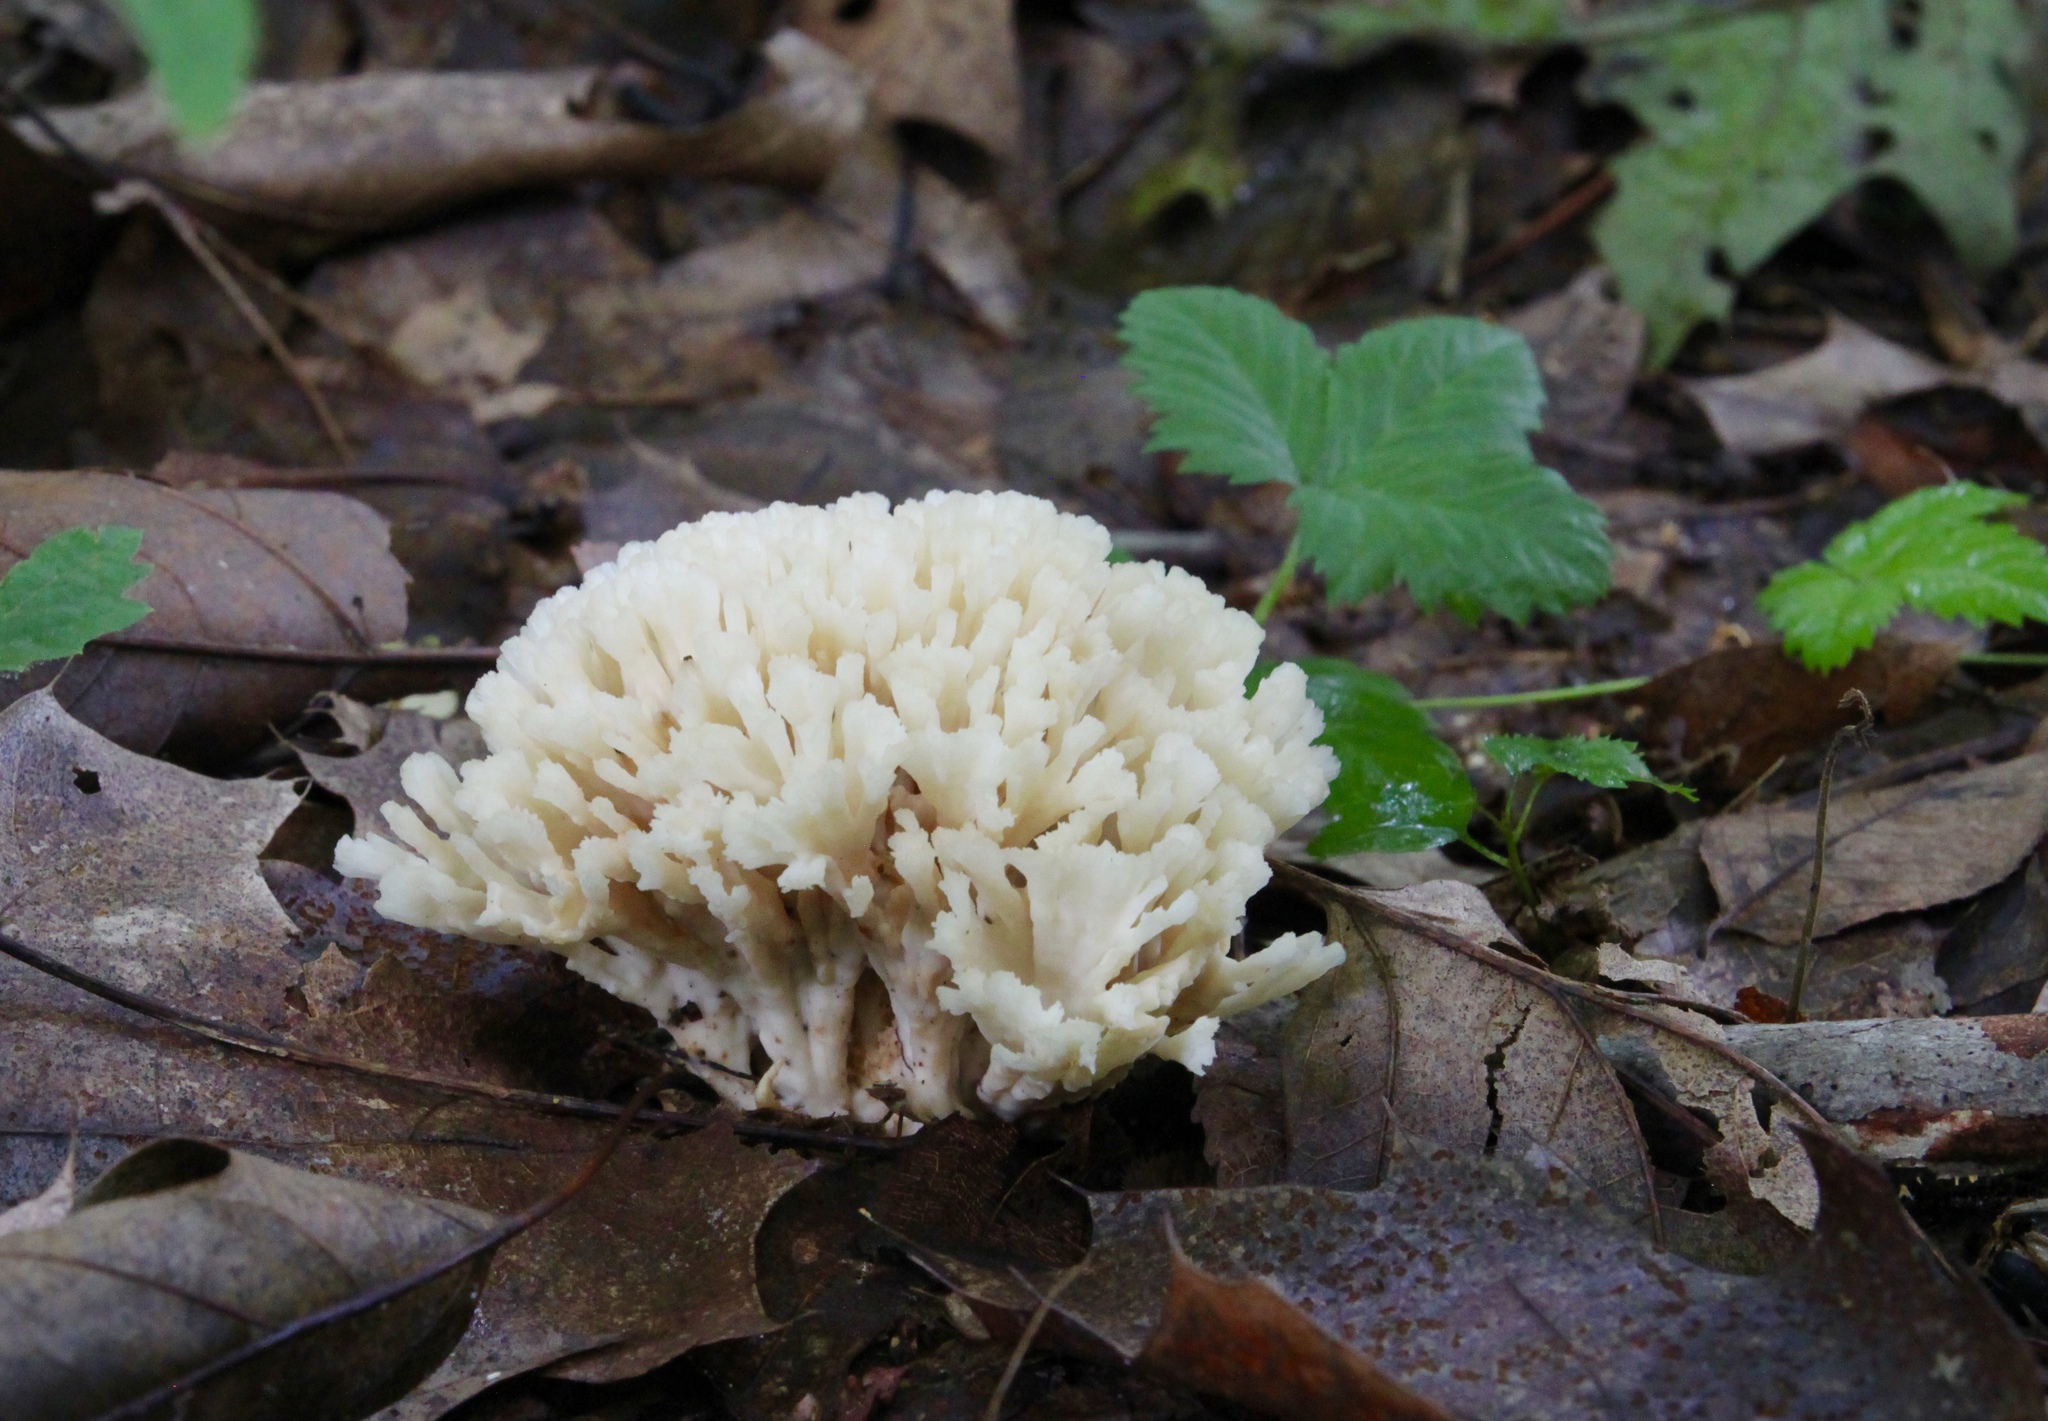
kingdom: Fungi
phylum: Basidiomycota
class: Agaricomycetes
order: Sebacinales
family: Sebacinaceae
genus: Sebacina
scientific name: Sebacina schweinitzii
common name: Jellied false coral fungus
